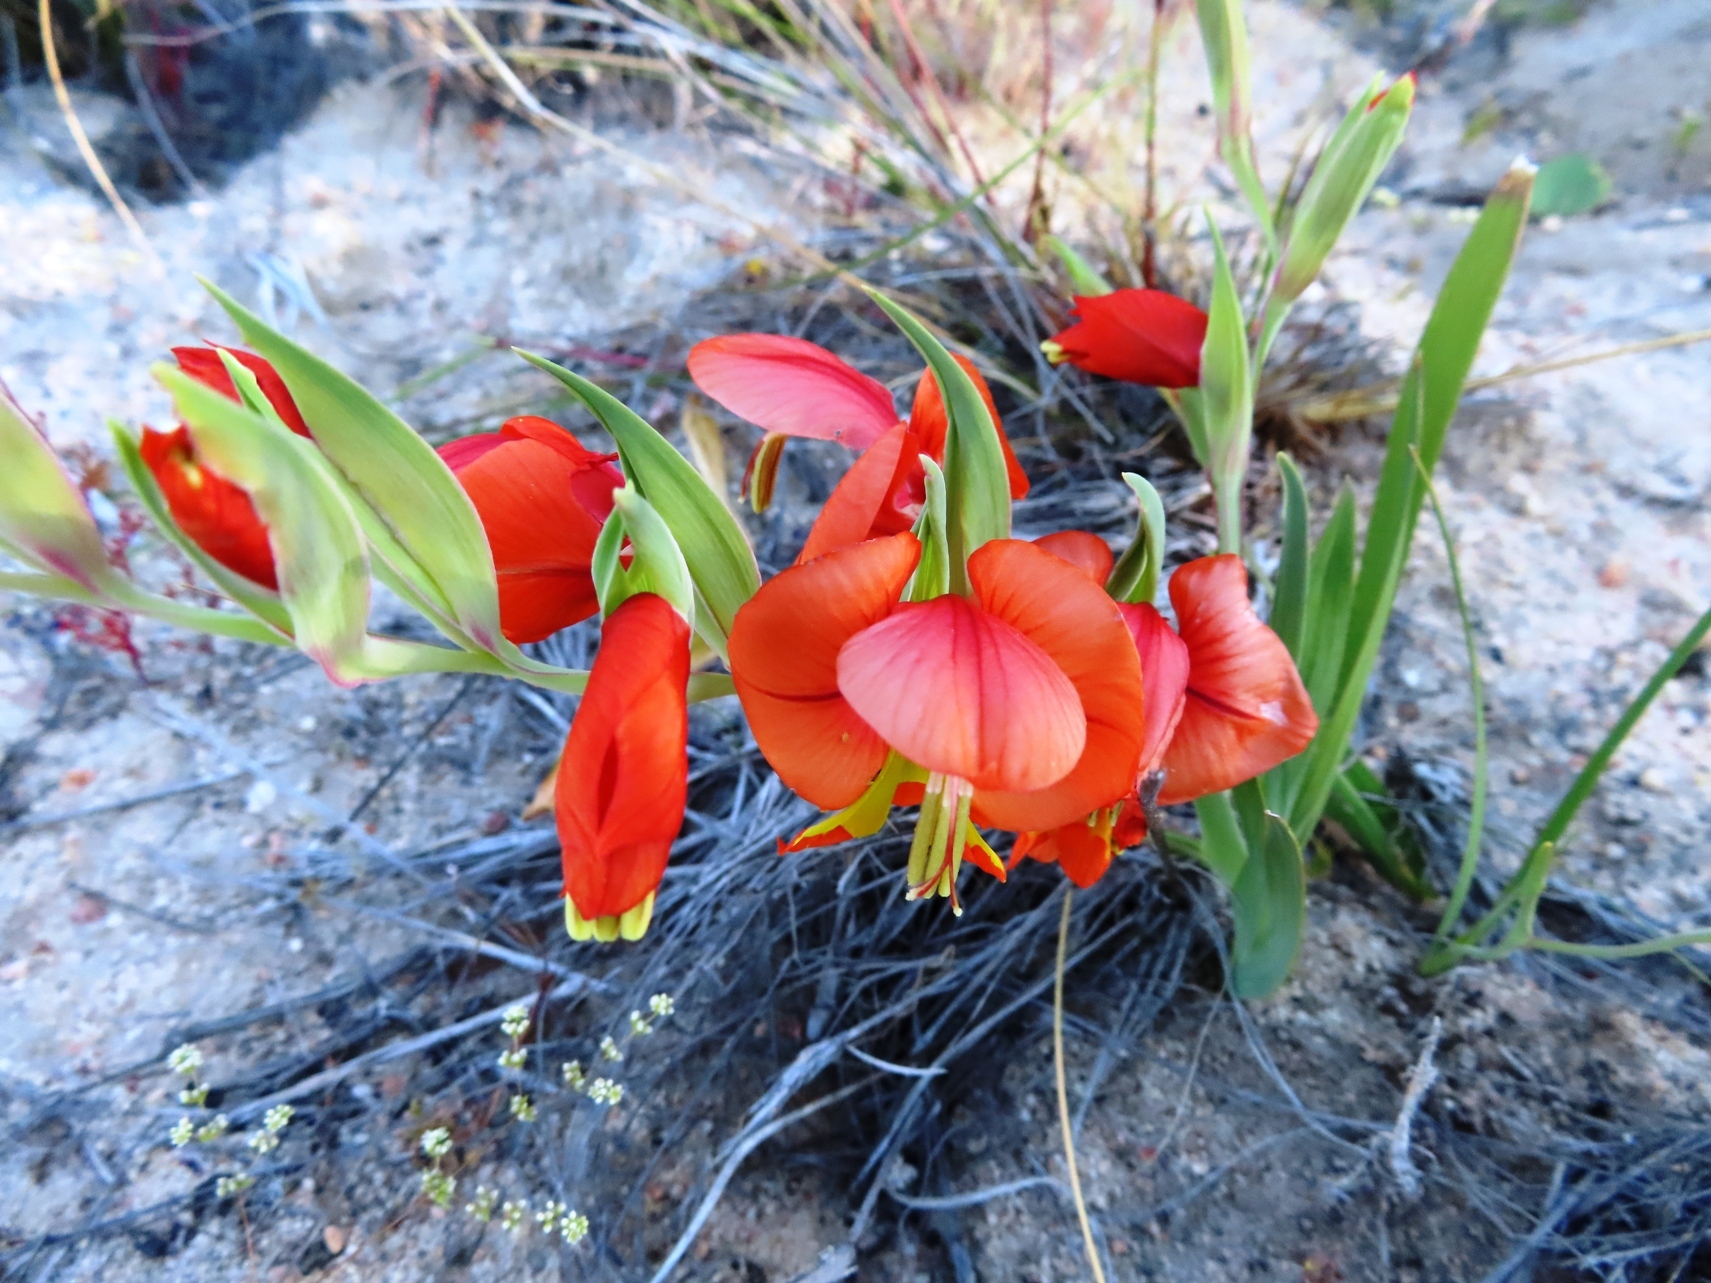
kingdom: Plantae
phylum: Tracheophyta
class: Liliopsida
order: Asparagales
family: Iridaceae
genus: Gladiolus
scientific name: Gladiolus speciosus
